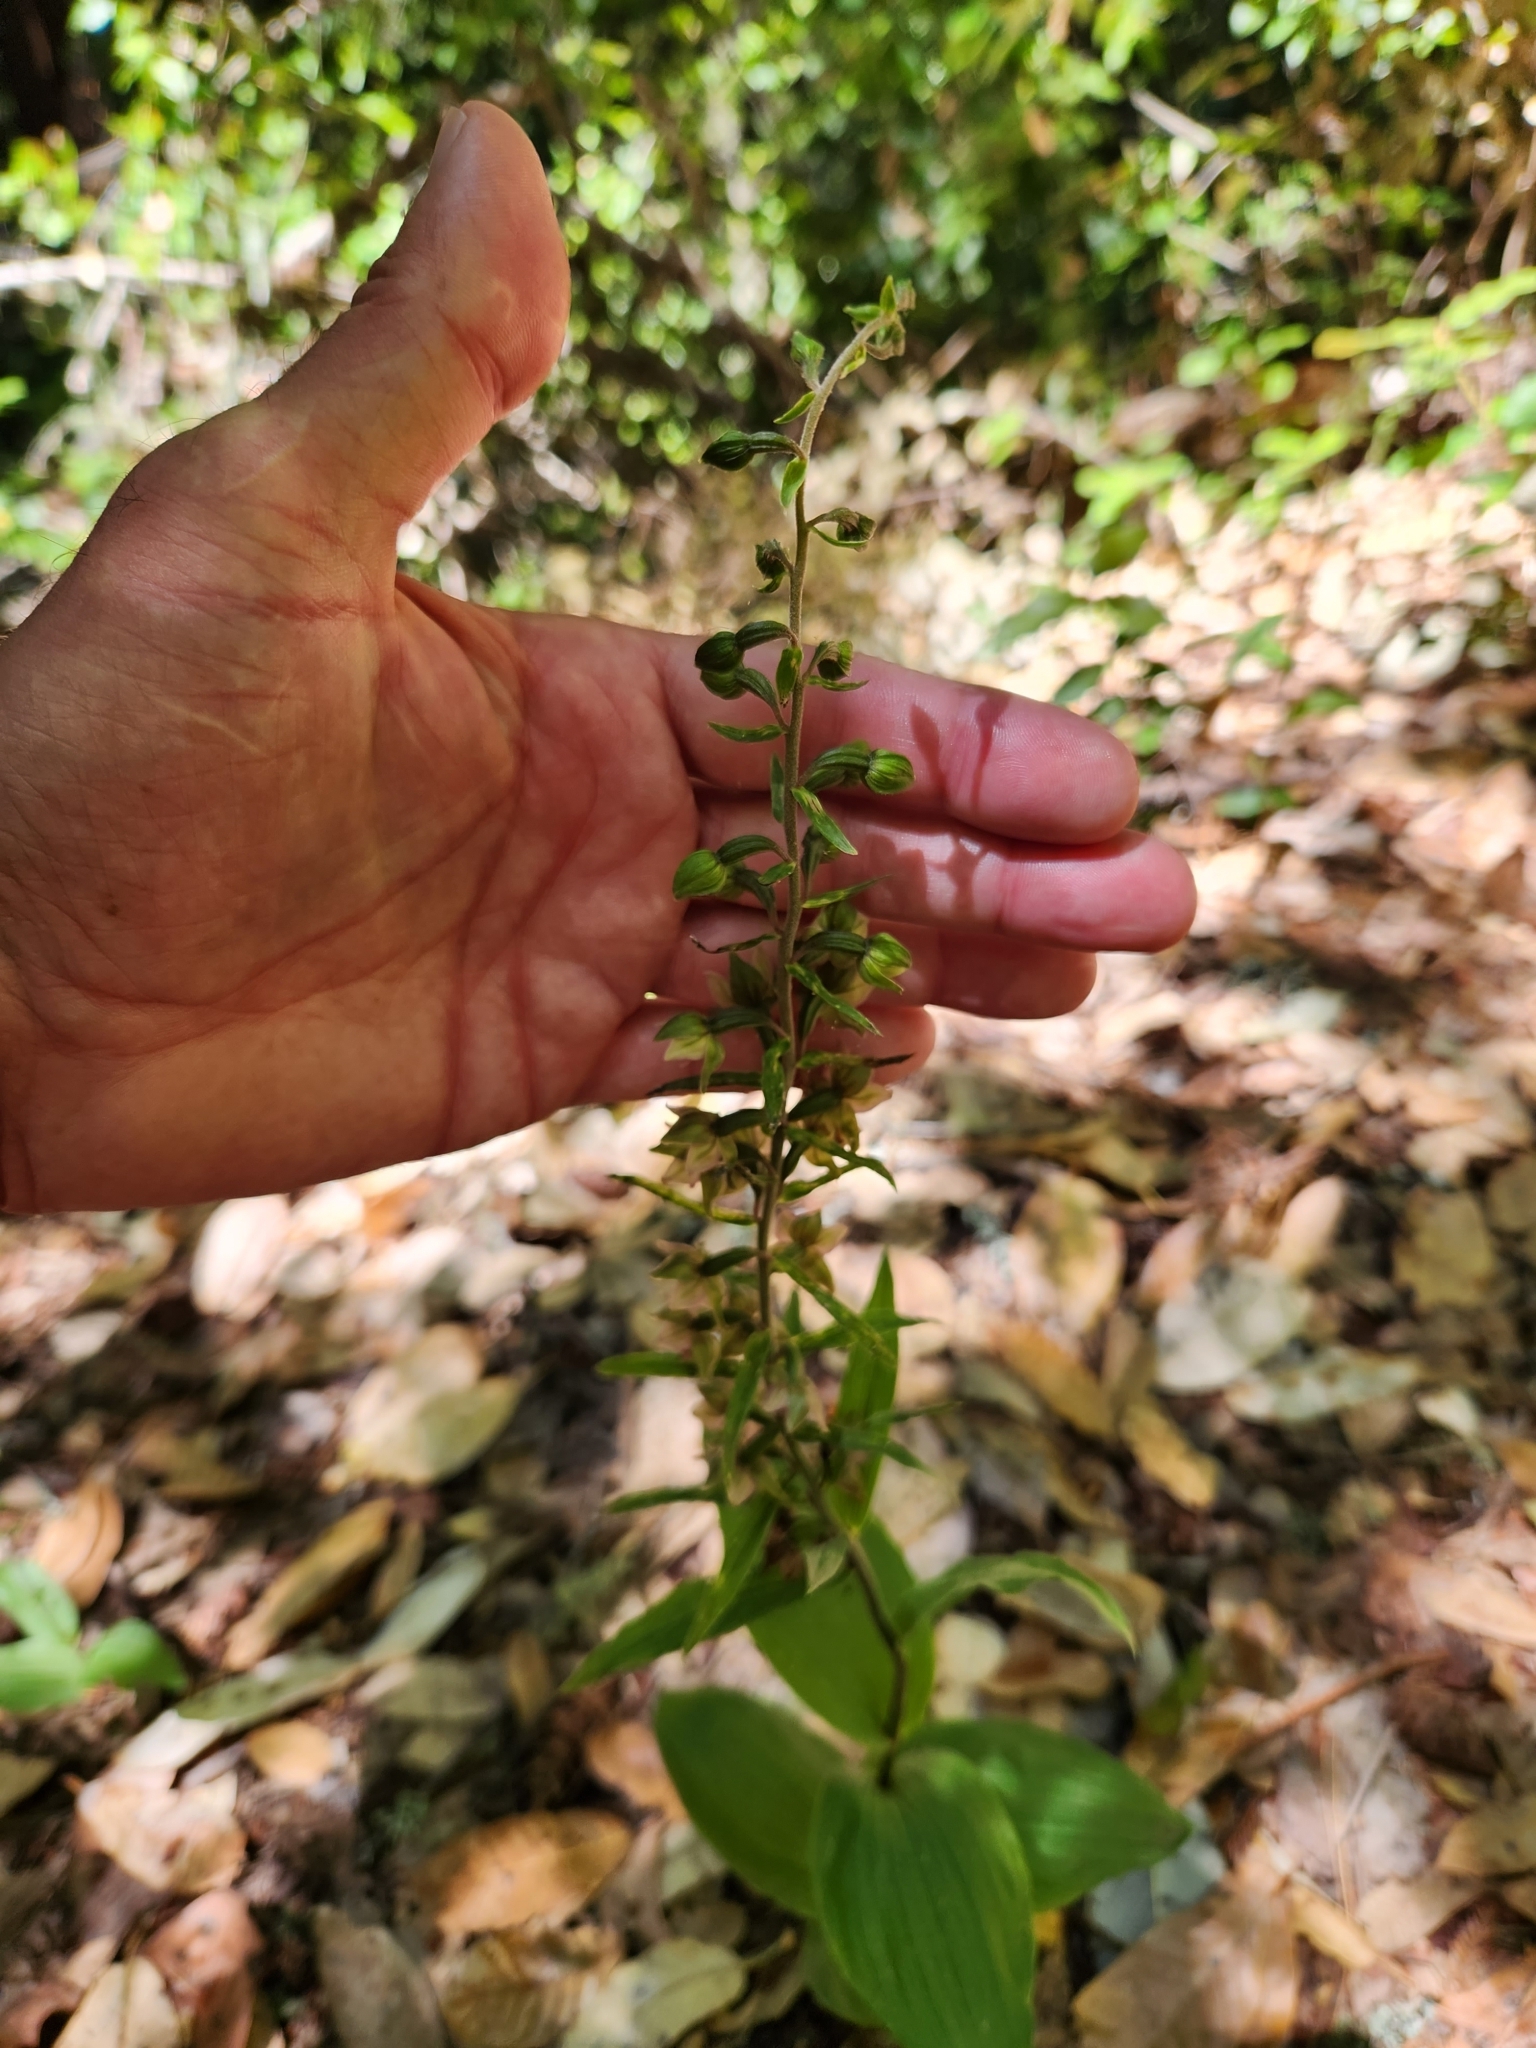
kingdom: Plantae
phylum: Tracheophyta
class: Liliopsida
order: Asparagales
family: Orchidaceae
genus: Epipactis
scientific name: Epipactis helleborine
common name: Broad-leaved helleborine
